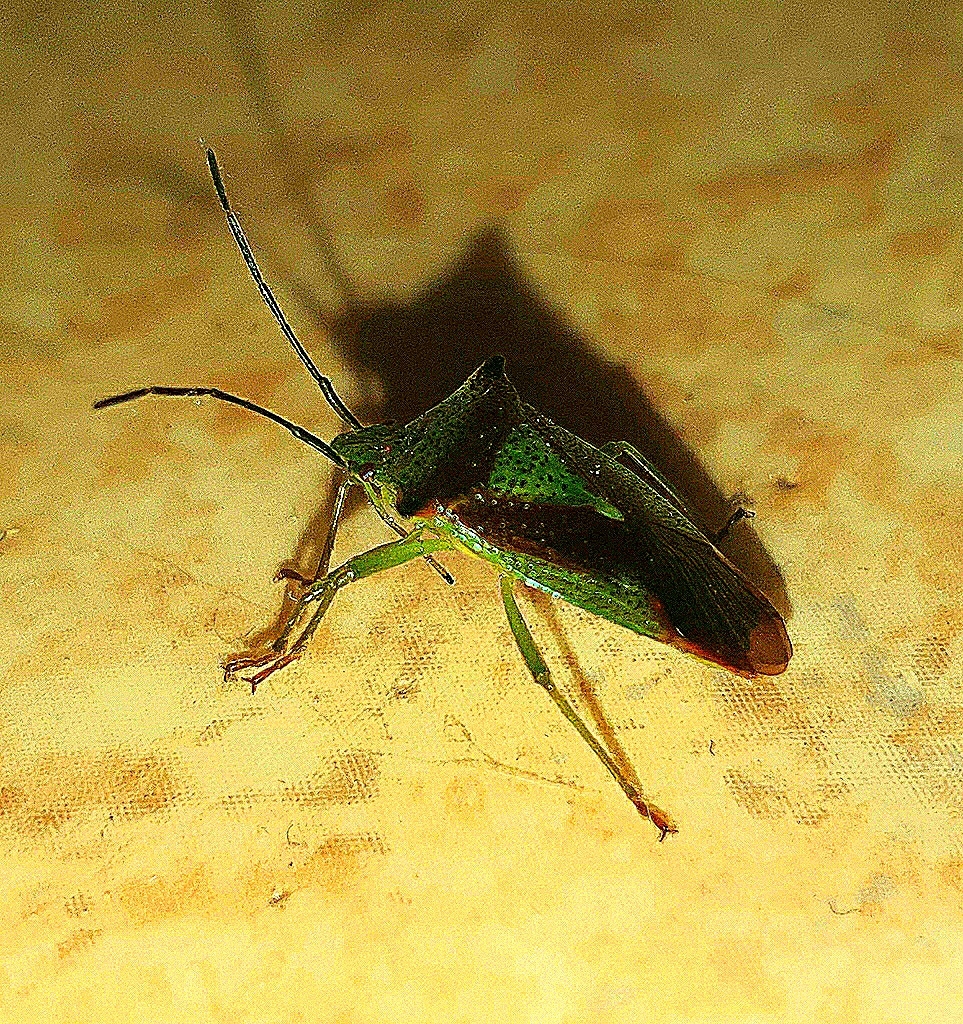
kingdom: Animalia
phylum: Arthropoda
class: Insecta
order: Hemiptera
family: Acanthosomatidae
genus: Acanthosoma
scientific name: Acanthosoma haemorrhoidale
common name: Hawthorn shieldbug
